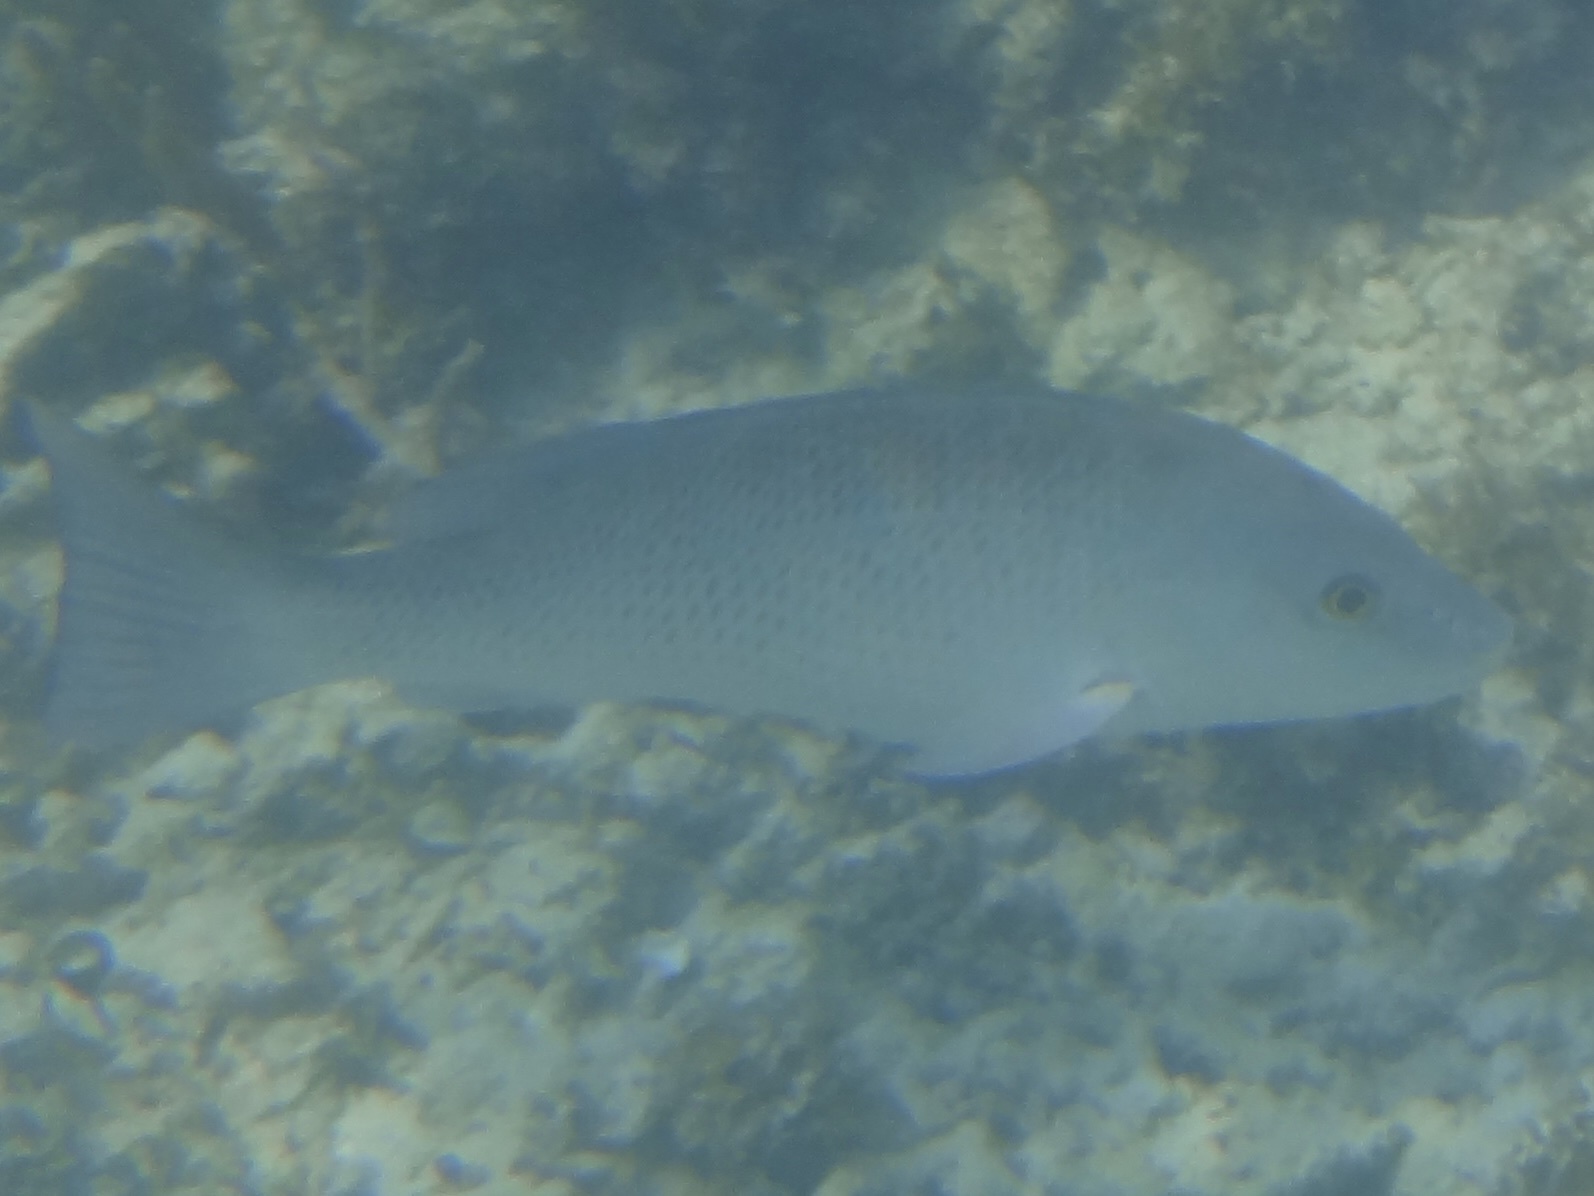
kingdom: Animalia
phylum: Chordata
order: Perciformes
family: Lutjanidae
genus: Lutjanus
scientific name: Lutjanus griseus
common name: Gray snapper
